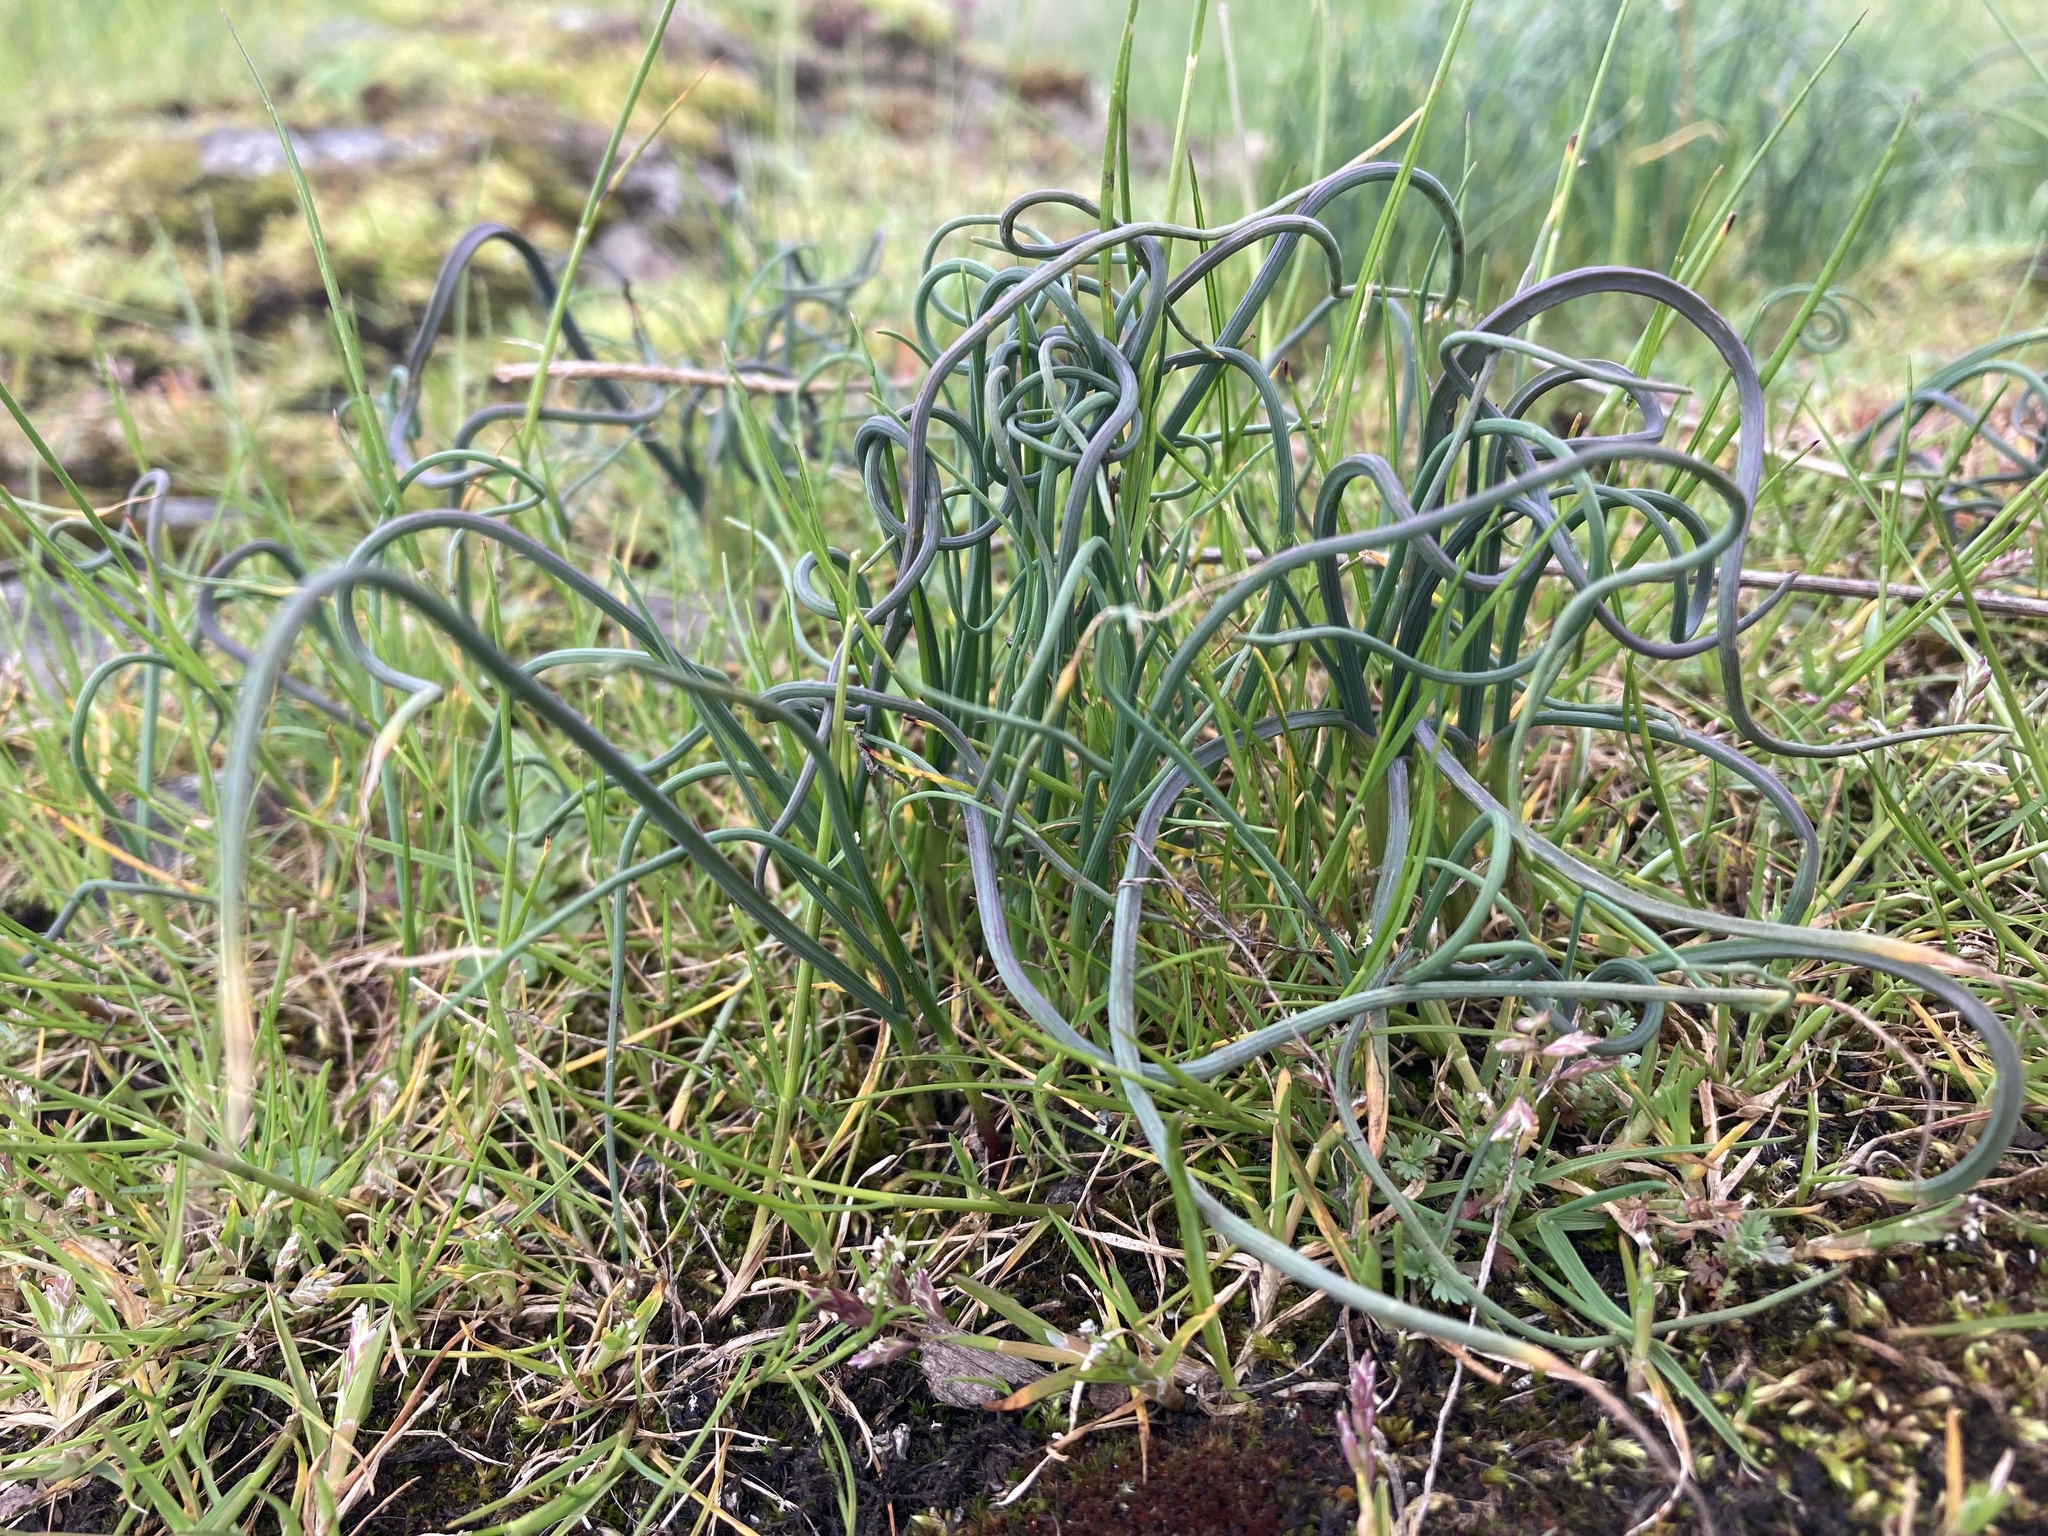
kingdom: Plantae
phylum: Tracheophyta
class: Liliopsida
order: Asparagales
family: Amaryllidaceae
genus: Allium
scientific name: Allium vineale
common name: Crow garlic
